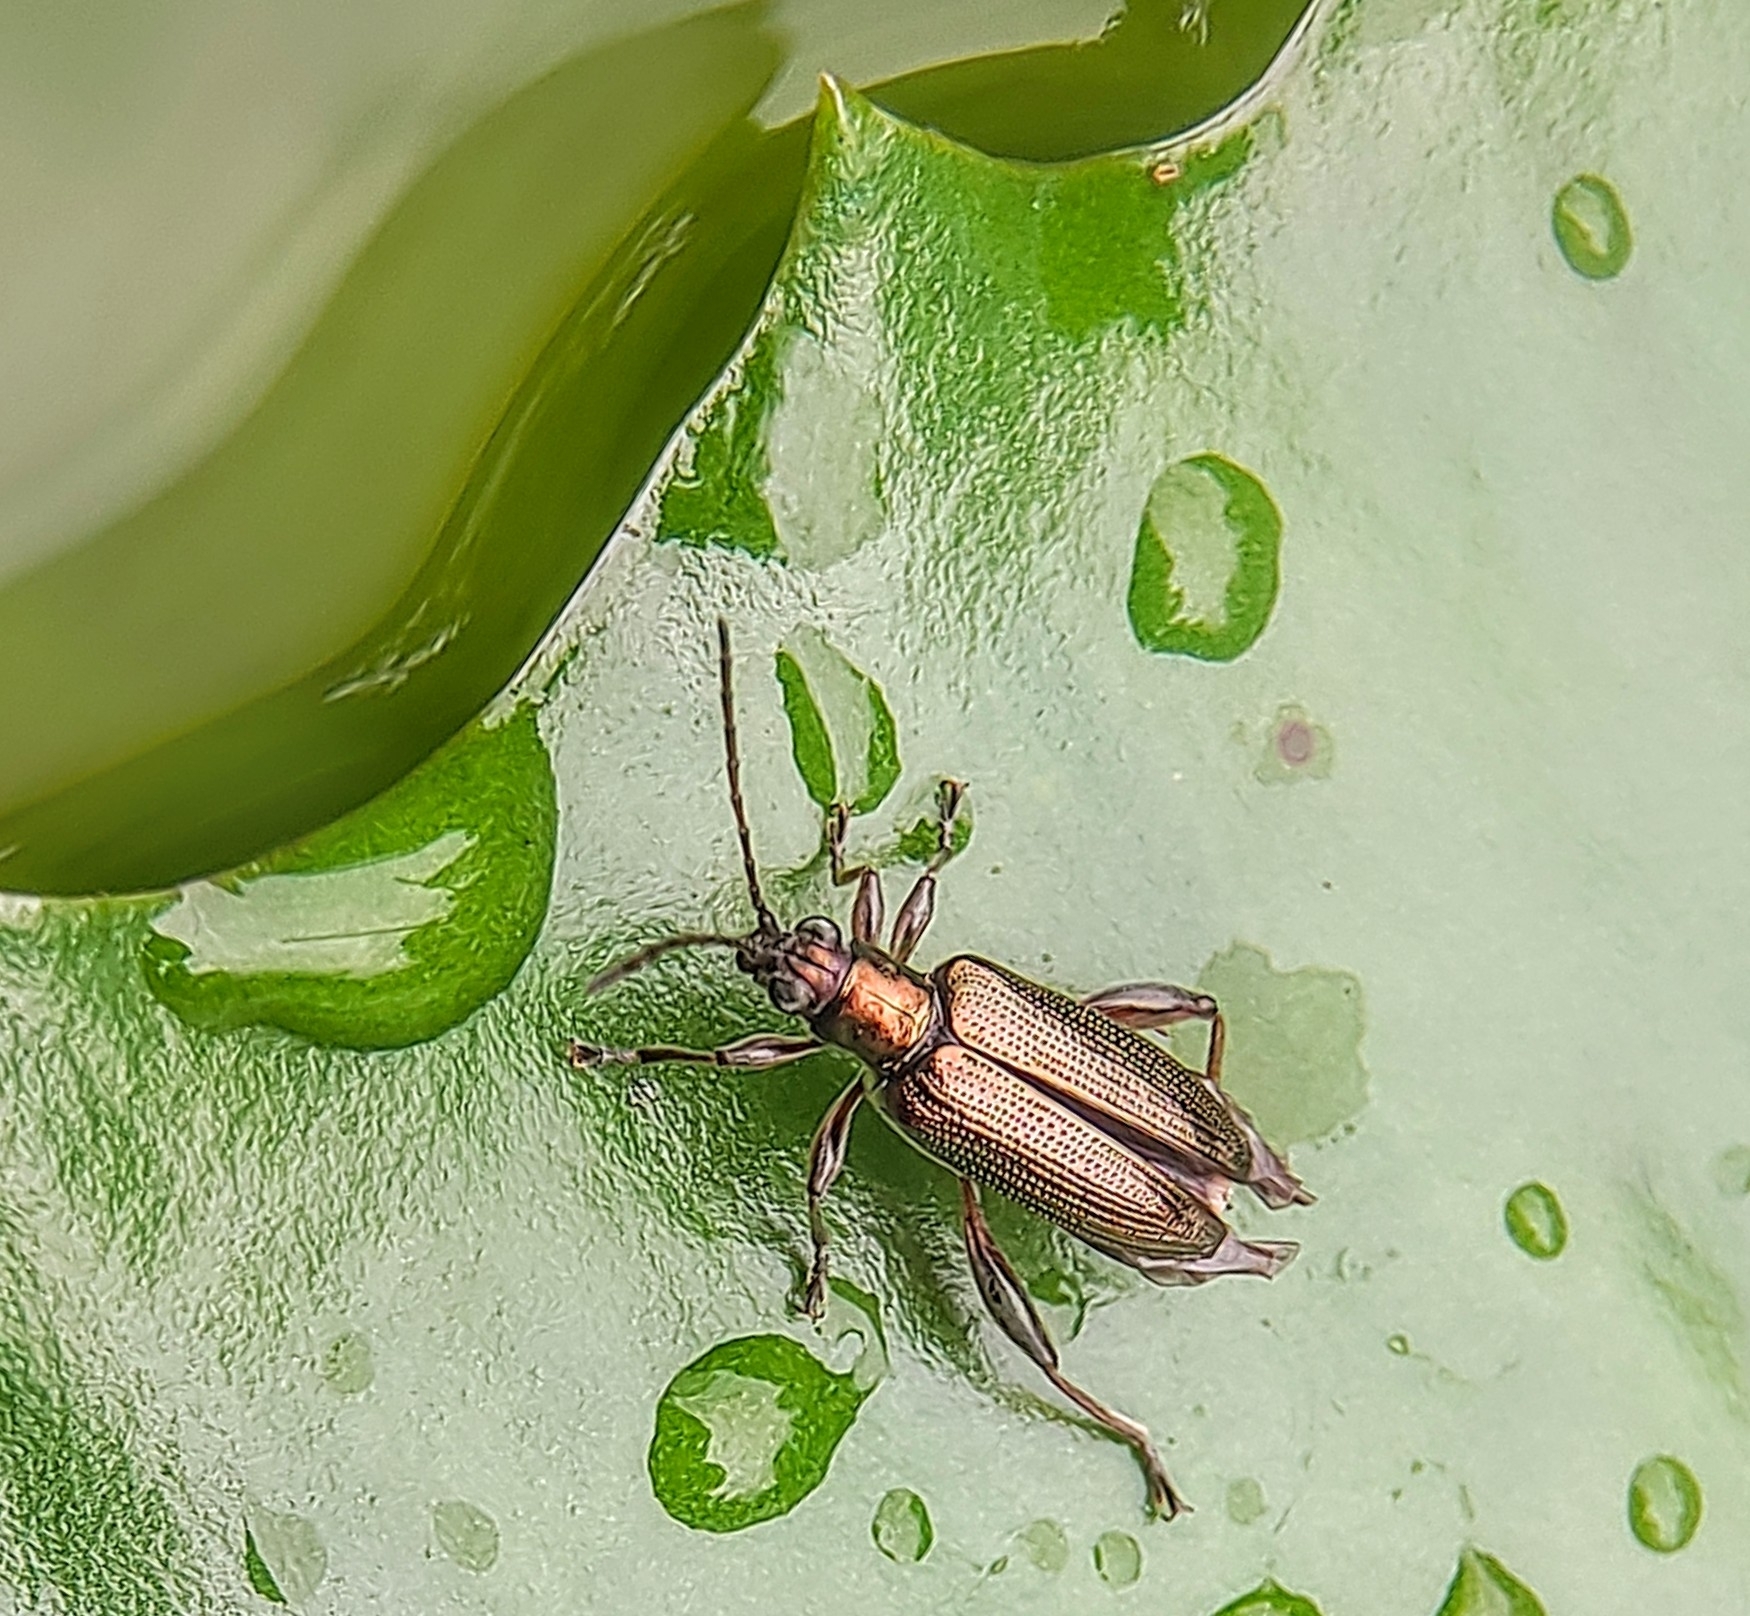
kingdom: Animalia
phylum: Arthropoda
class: Insecta
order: Coleoptera
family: Chrysomelidae
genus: Donacia
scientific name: Donacia japana
